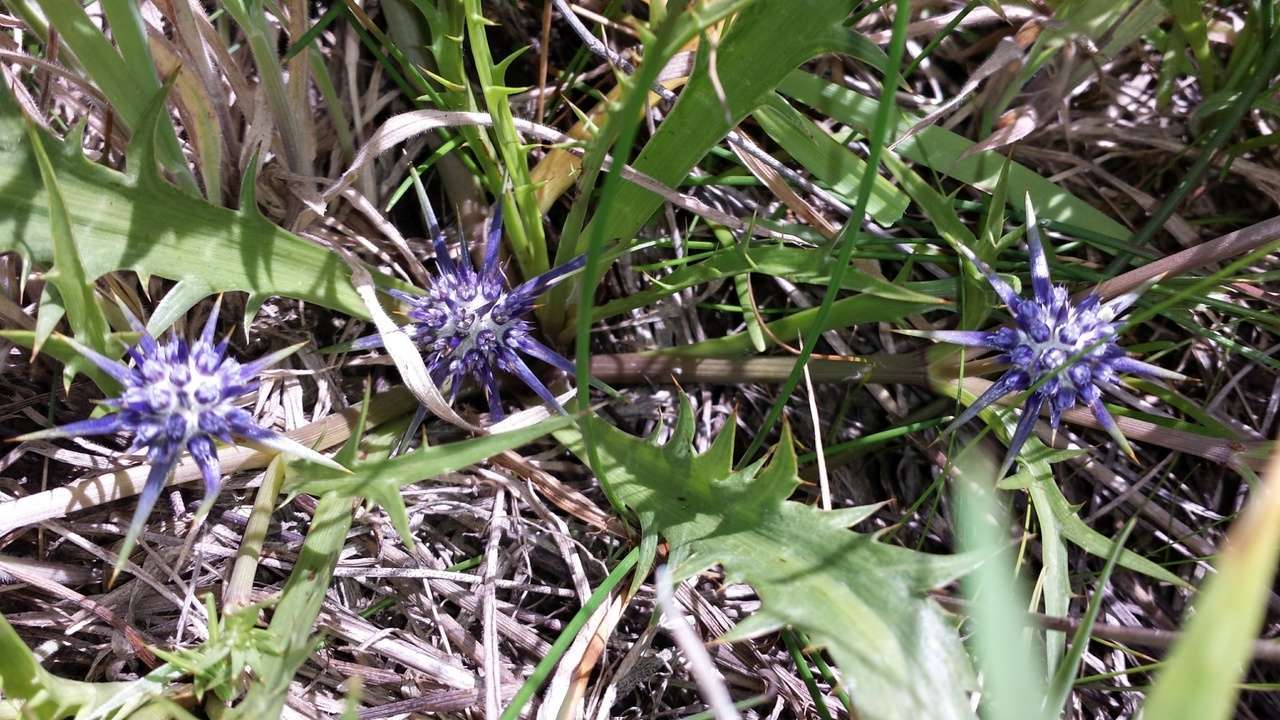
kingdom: Plantae
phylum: Tracheophyta
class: Magnoliopsida
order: Apiales
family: Apiaceae
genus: Eryngium
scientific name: Eryngium vesiculosum
